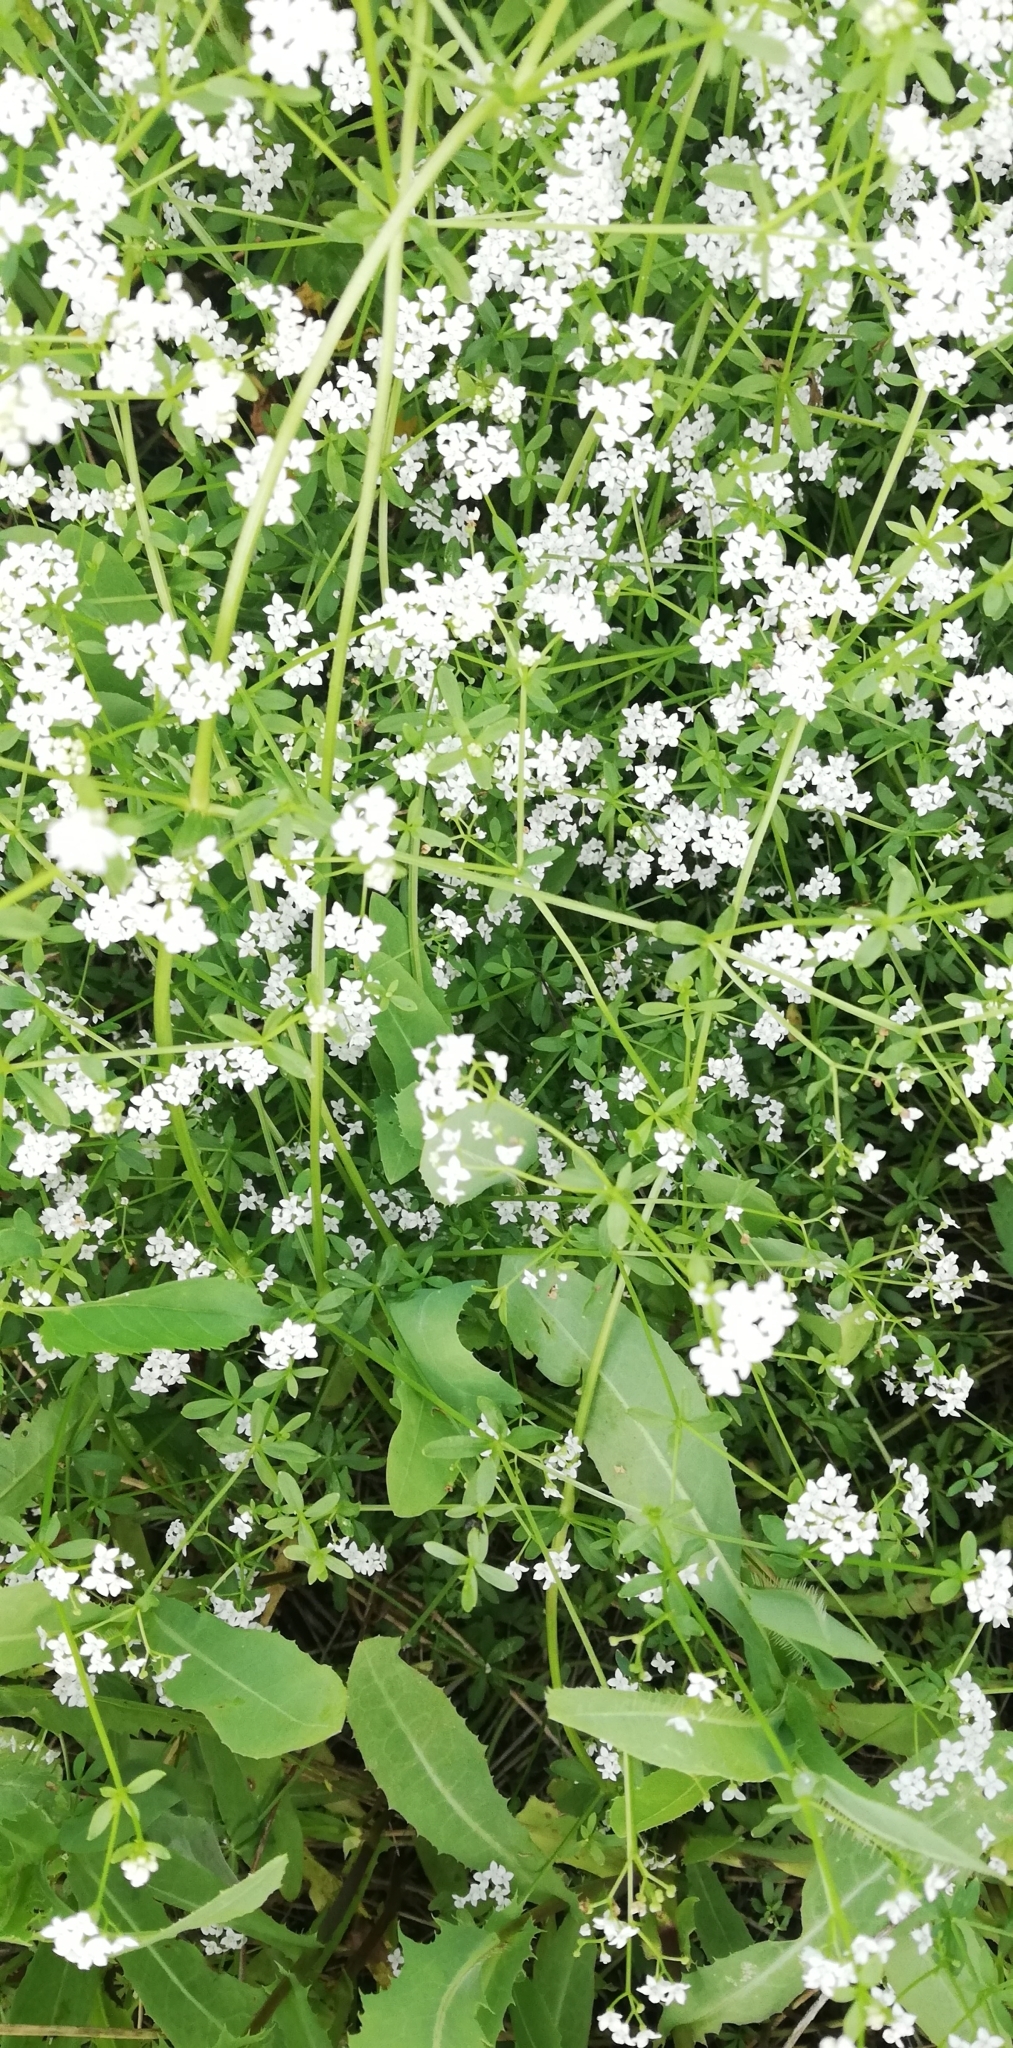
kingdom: Plantae
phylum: Tracheophyta
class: Magnoliopsida
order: Gentianales
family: Rubiaceae
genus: Galium
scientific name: Galium palustre
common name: Common marsh-bedstraw
